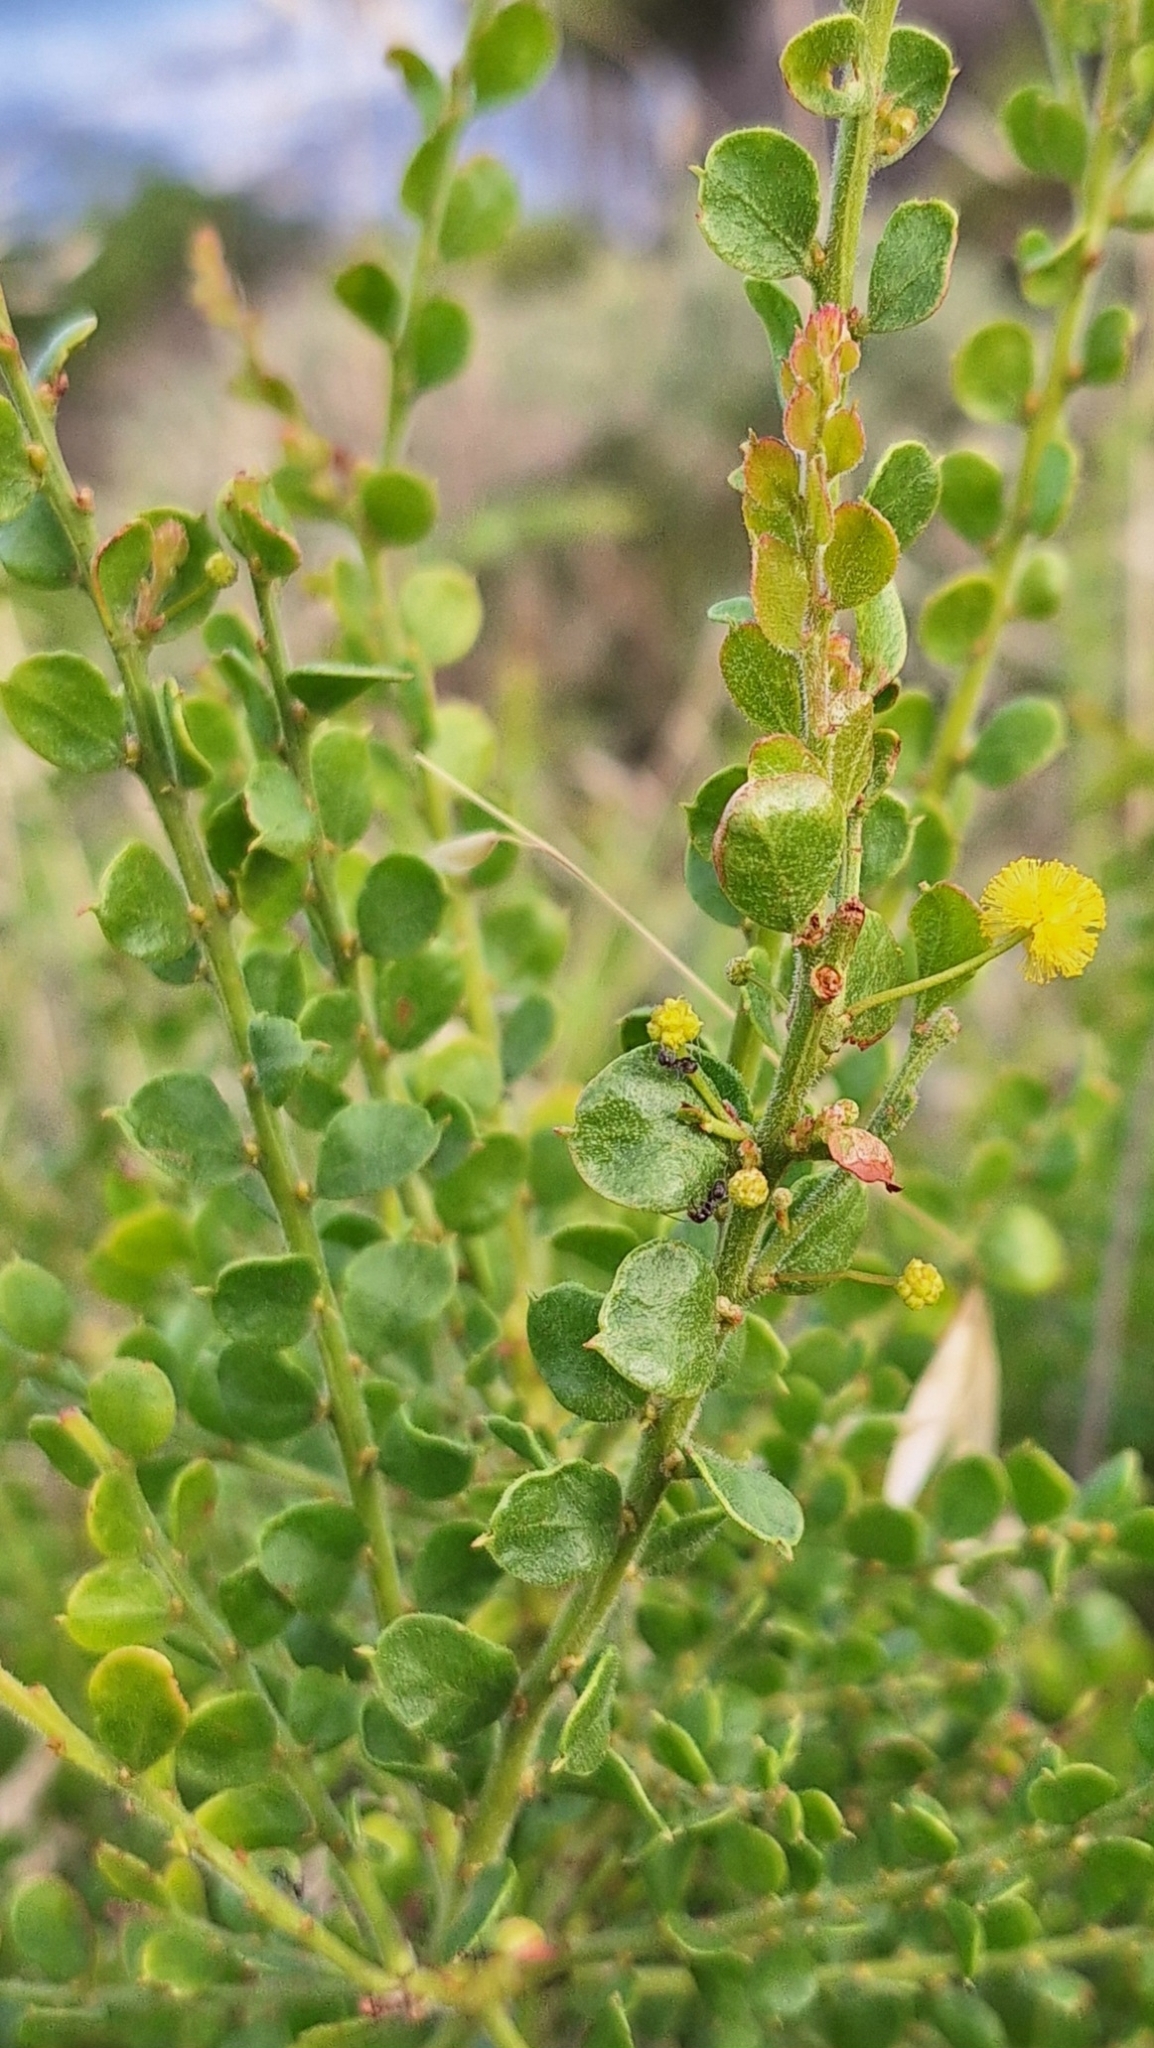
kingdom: Plantae
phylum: Tracheophyta
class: Magnoliopsida
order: Fabales
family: Fabaceae
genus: Acacia
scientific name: Acacia acinacea
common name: Gold-dust acacia
